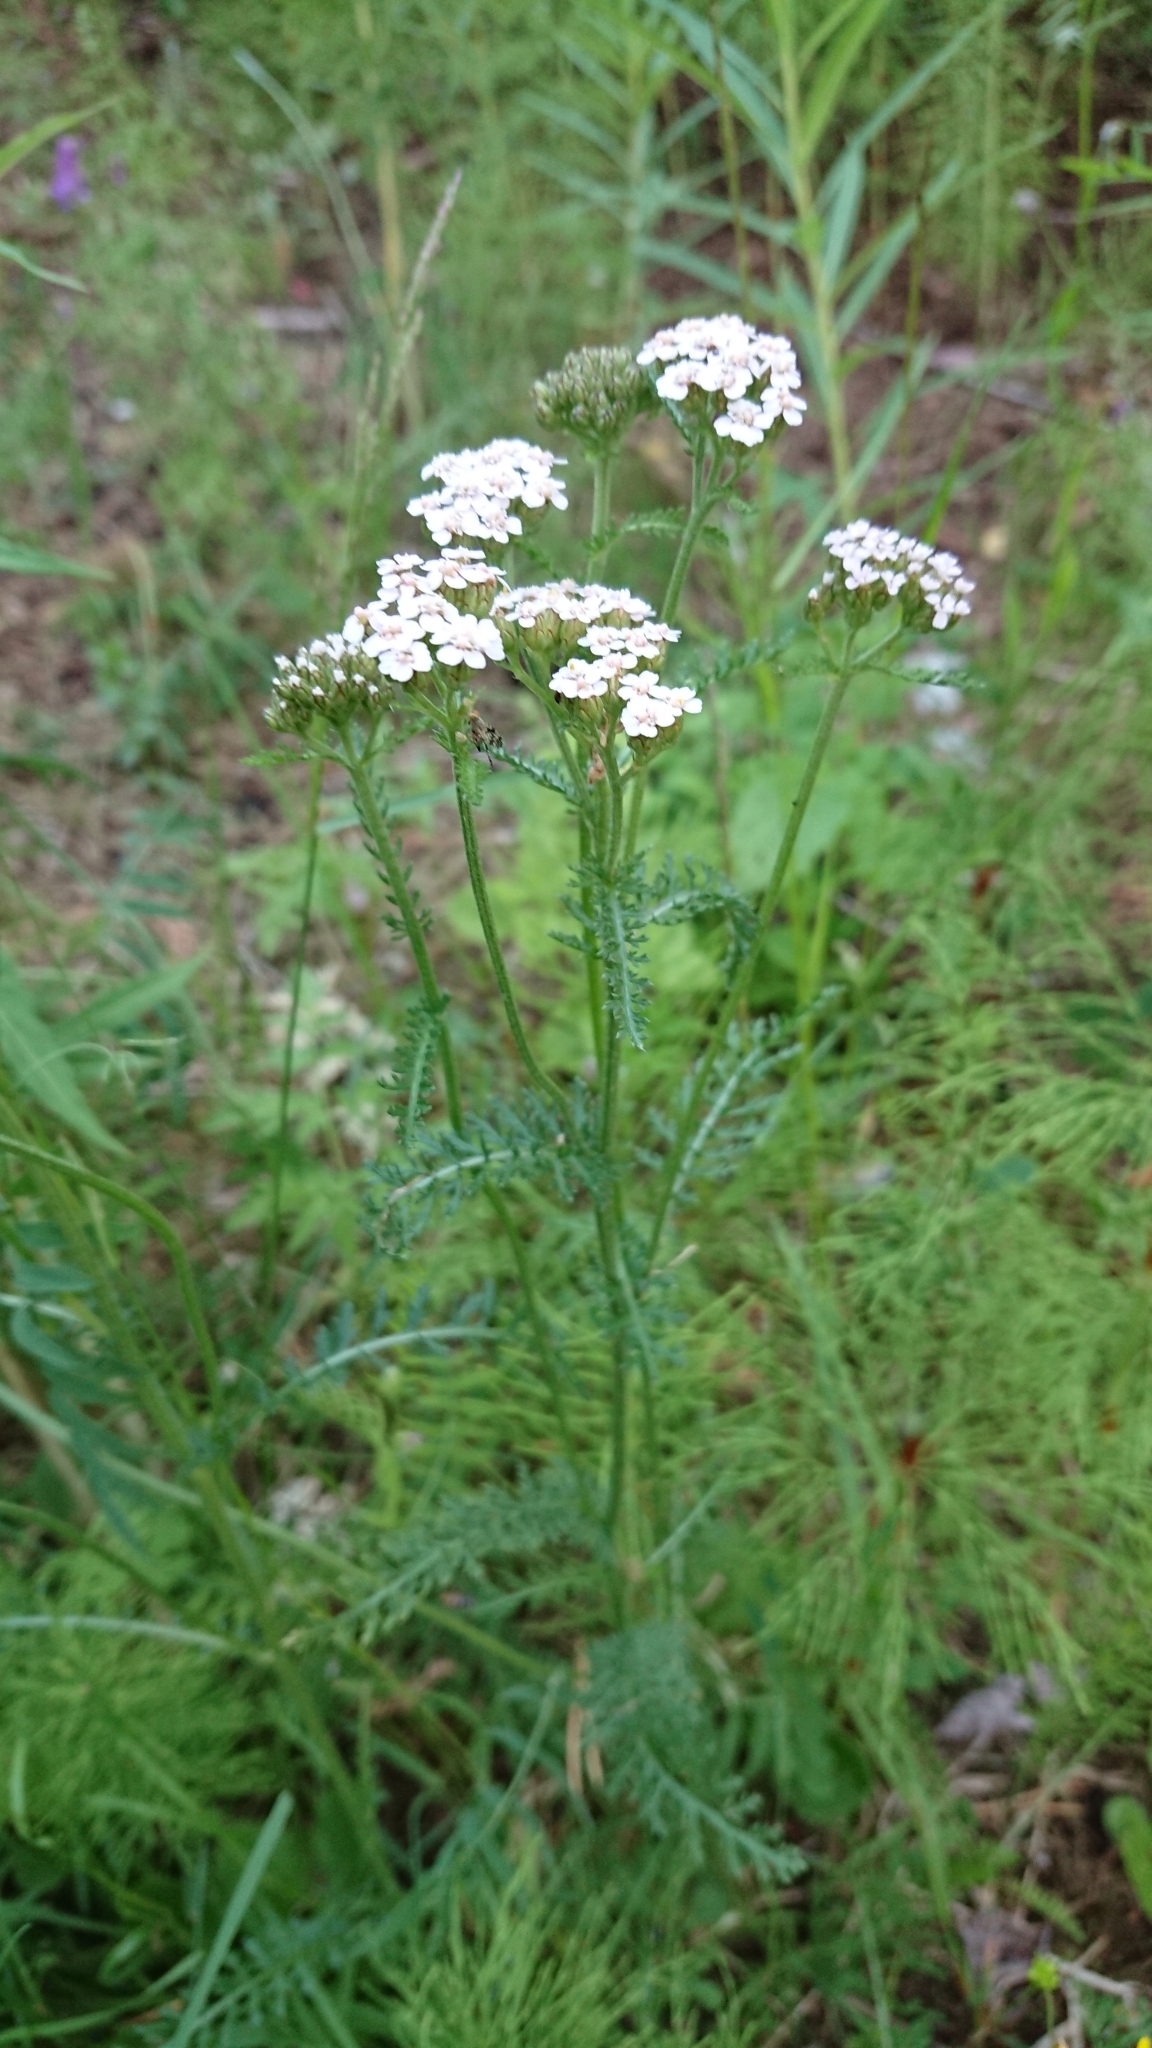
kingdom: Plantae
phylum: Tracheophyta
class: Magnoliopsida
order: Asterales
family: Asteraceae
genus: Achillea
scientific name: Achillea millefolium
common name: Yarrow
